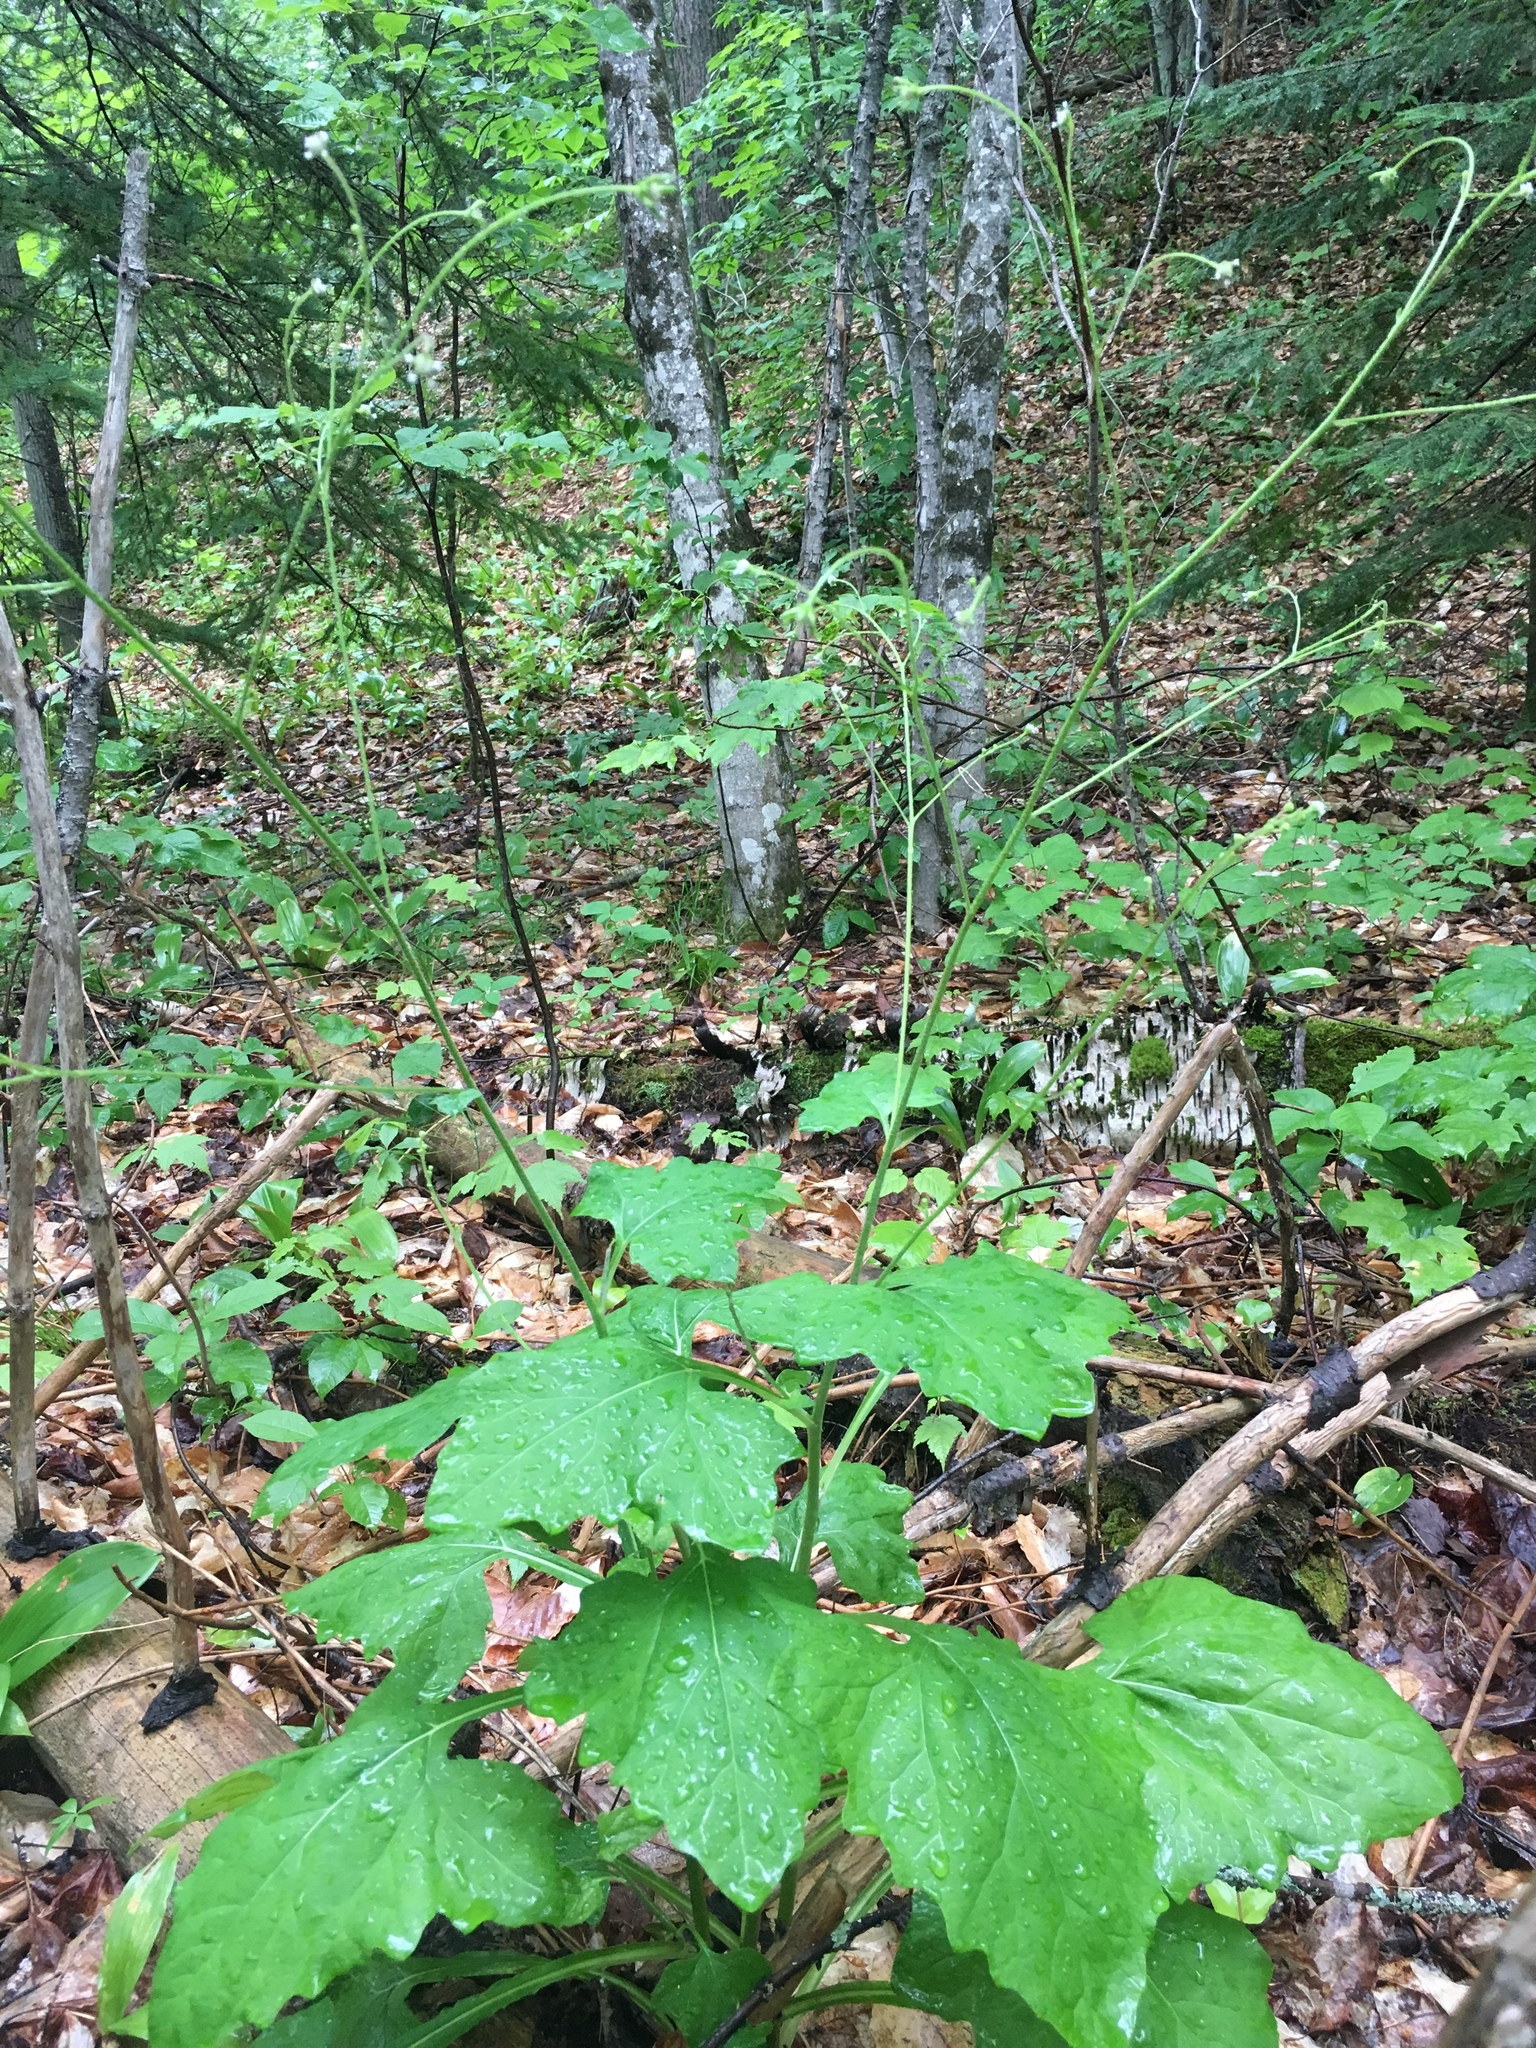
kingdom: Plantae
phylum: Tracheophyta
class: Magnoliopsida
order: Asterales
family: Asteraceae
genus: Adenocaulon
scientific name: Adenocaulon bicolor
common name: Trailplant
